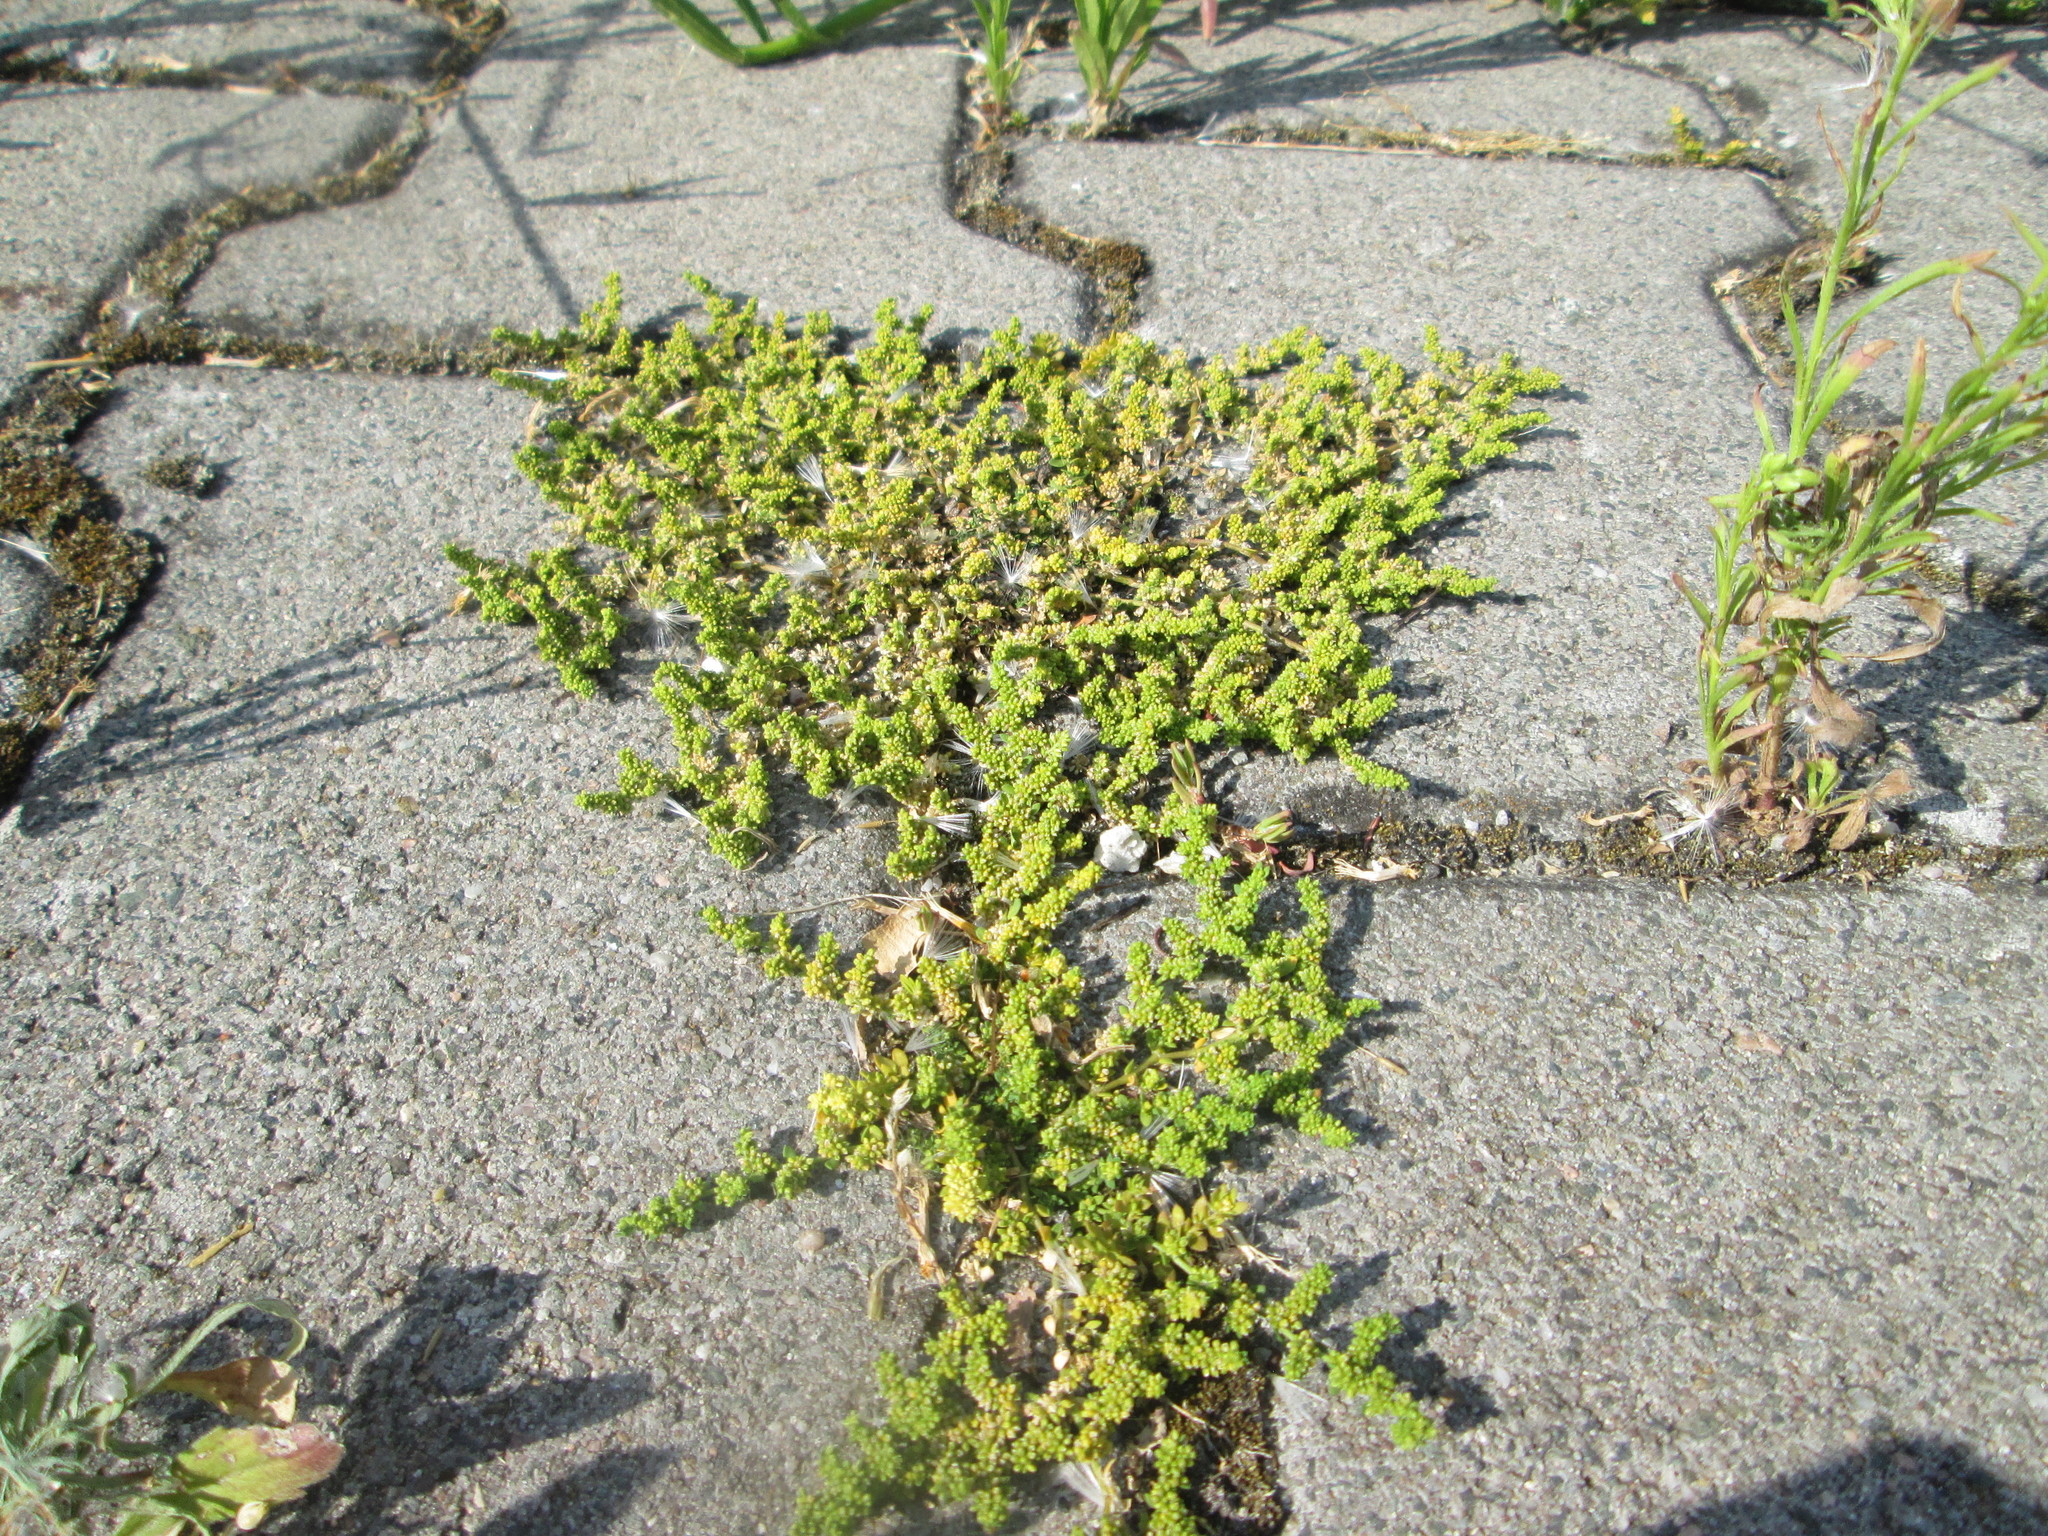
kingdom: Plantae
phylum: Tracheophyta
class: Magnoliopsida
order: Caryophyllales
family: Caryophyllaceae
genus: Herniaria
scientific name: Herniaria glabra
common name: Smooth rupturewort
